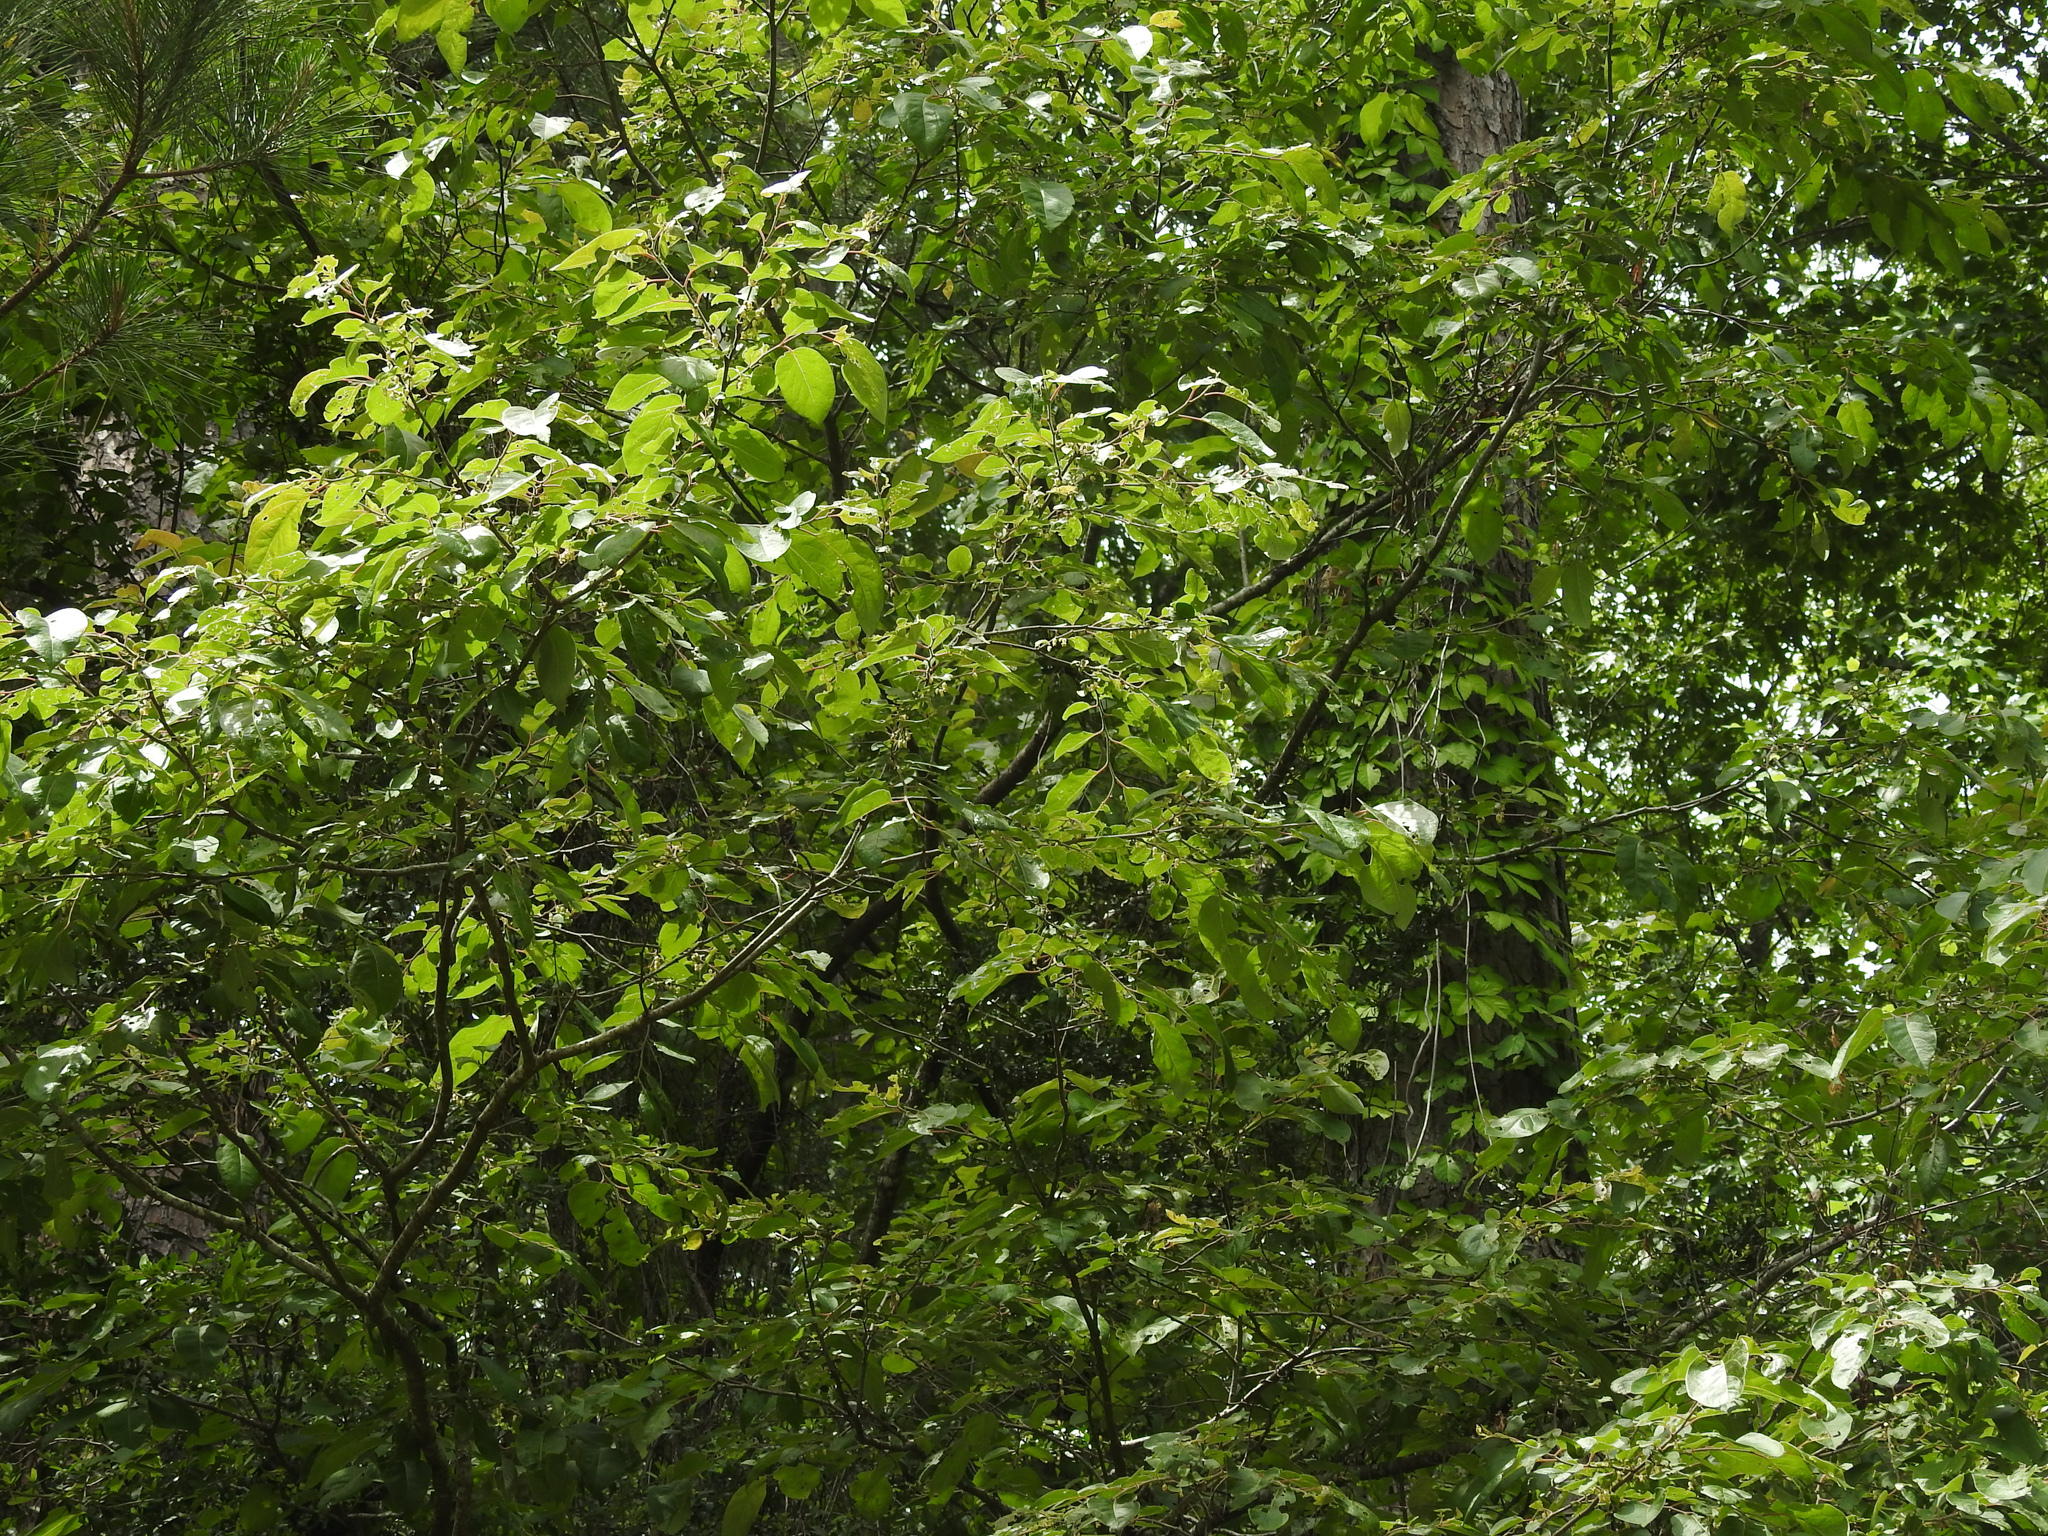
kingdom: Plantae
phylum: Tracheophyta
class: Magnoliopsida
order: Ericales
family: Ebenaceae
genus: Diospyros
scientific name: Diospyros virginiana
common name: Persimmon
